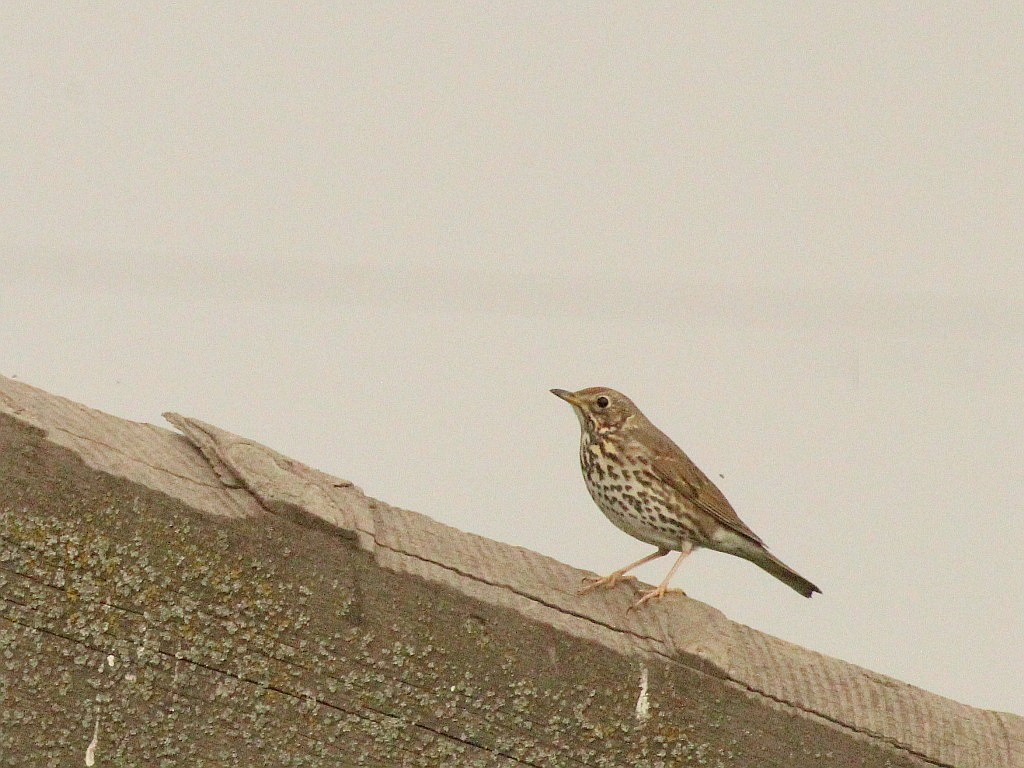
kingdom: Animalia
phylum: Chordata
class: Aves
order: Passeriformes
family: Turdidae
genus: Turdus
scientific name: Turdus philomelos
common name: Song thrush
